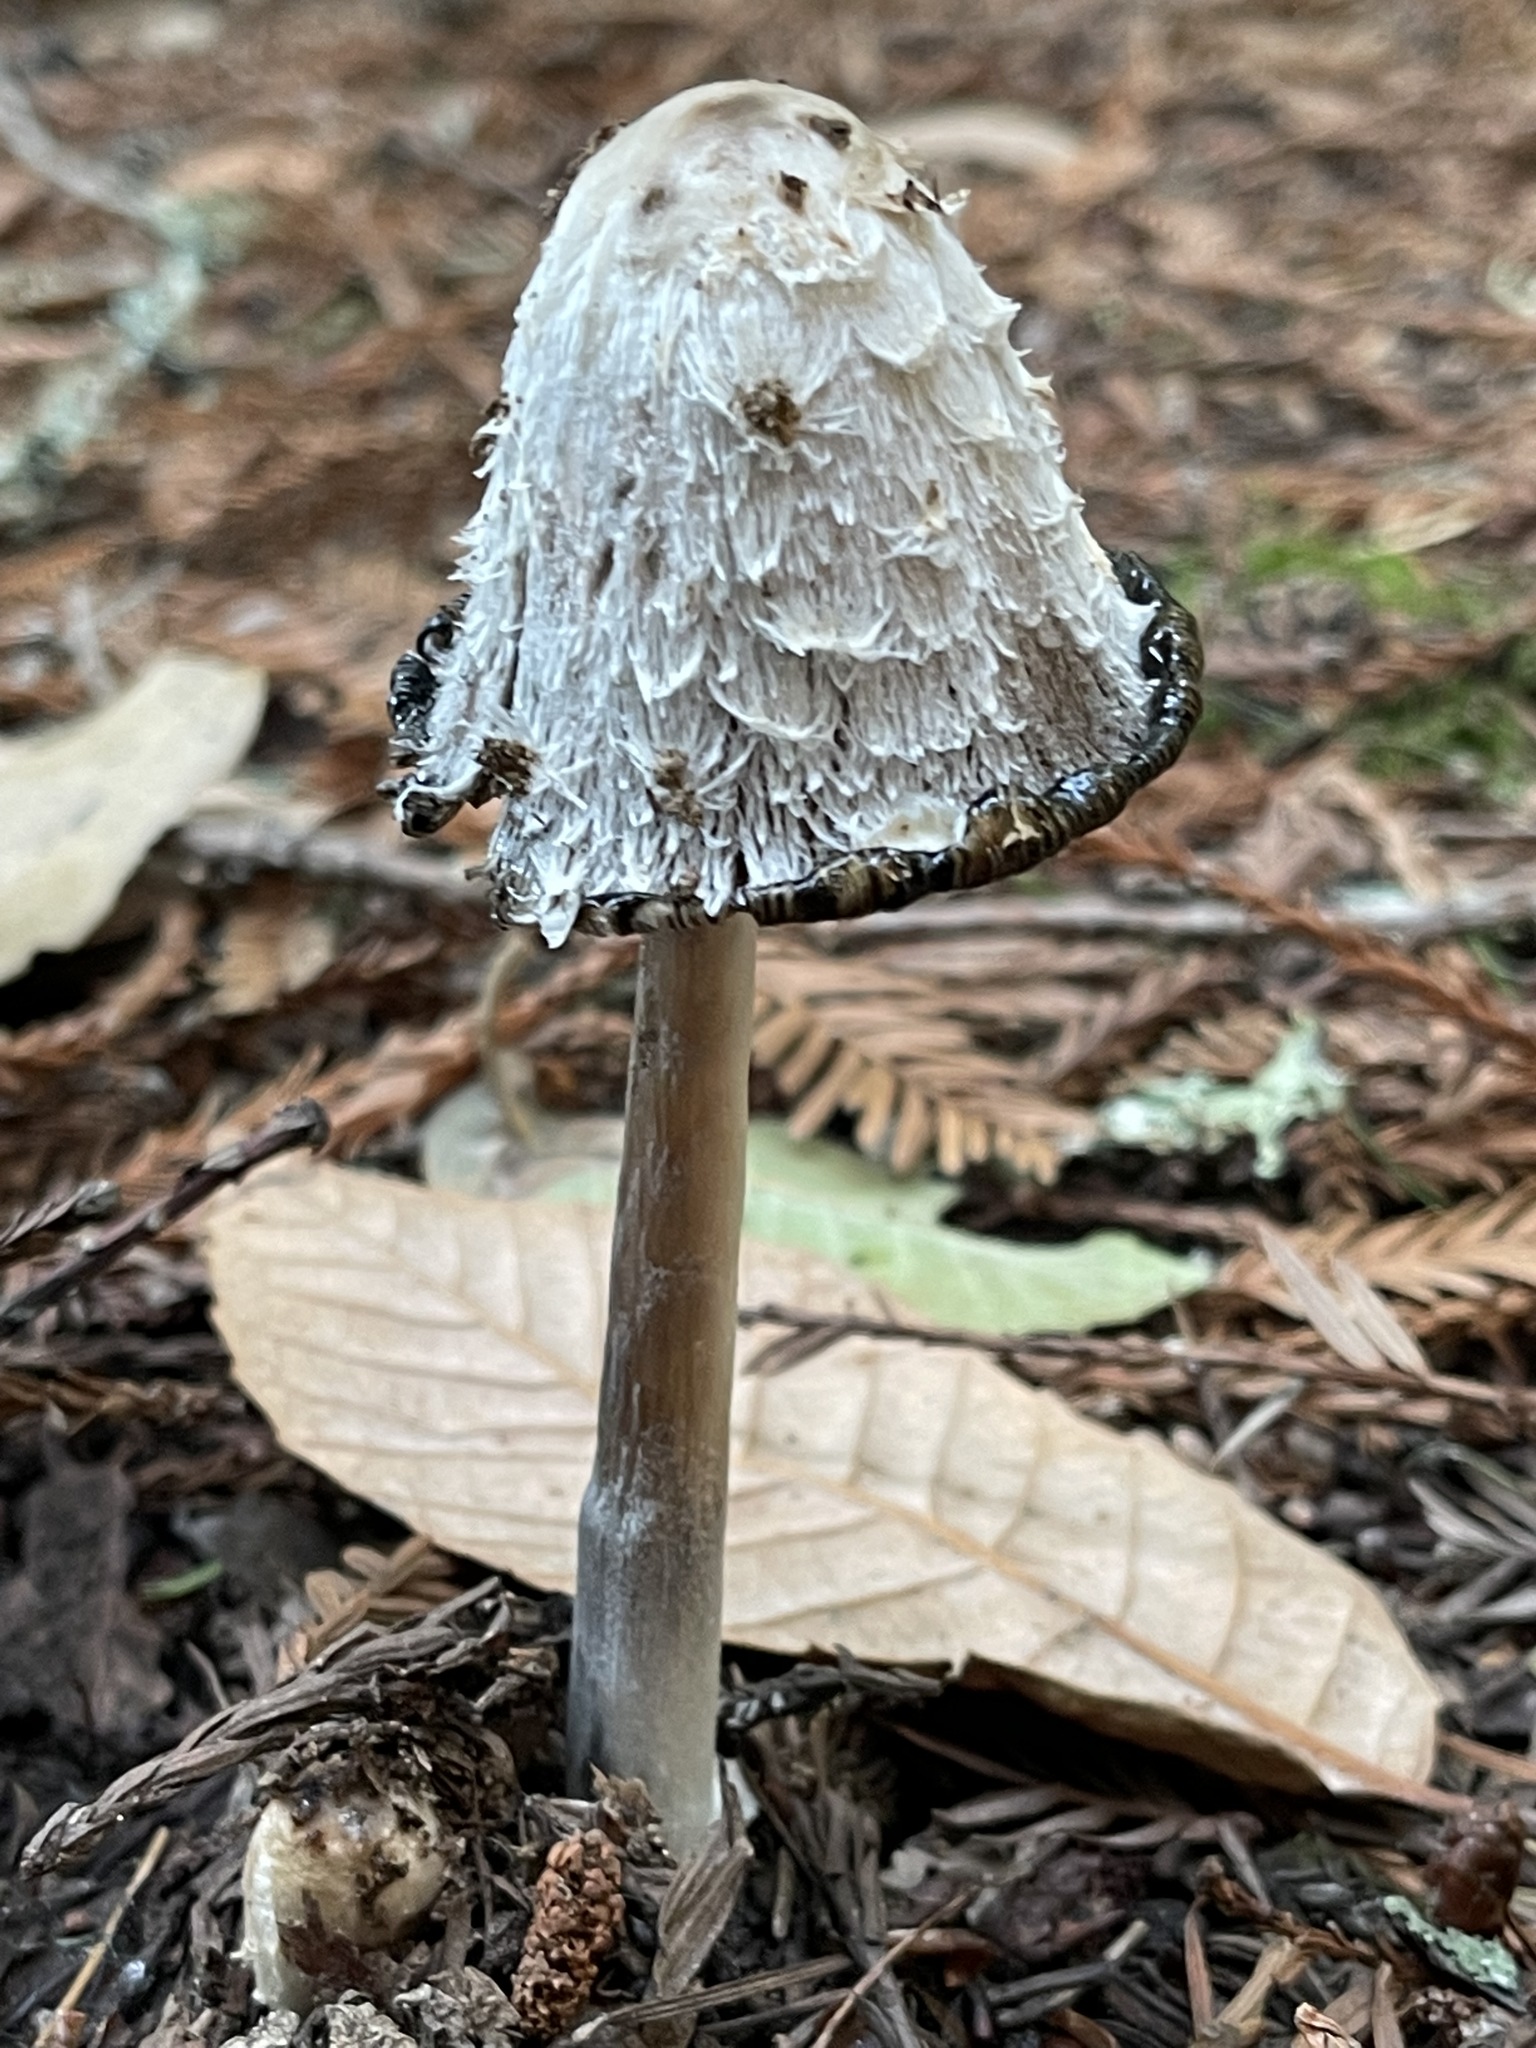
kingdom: Fungi
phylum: Basidiomycota
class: Agaricomycetes
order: Agaricales
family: Agaricaceae
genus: Coprinus
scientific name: Coprinus comatus
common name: Lawyer's wig
